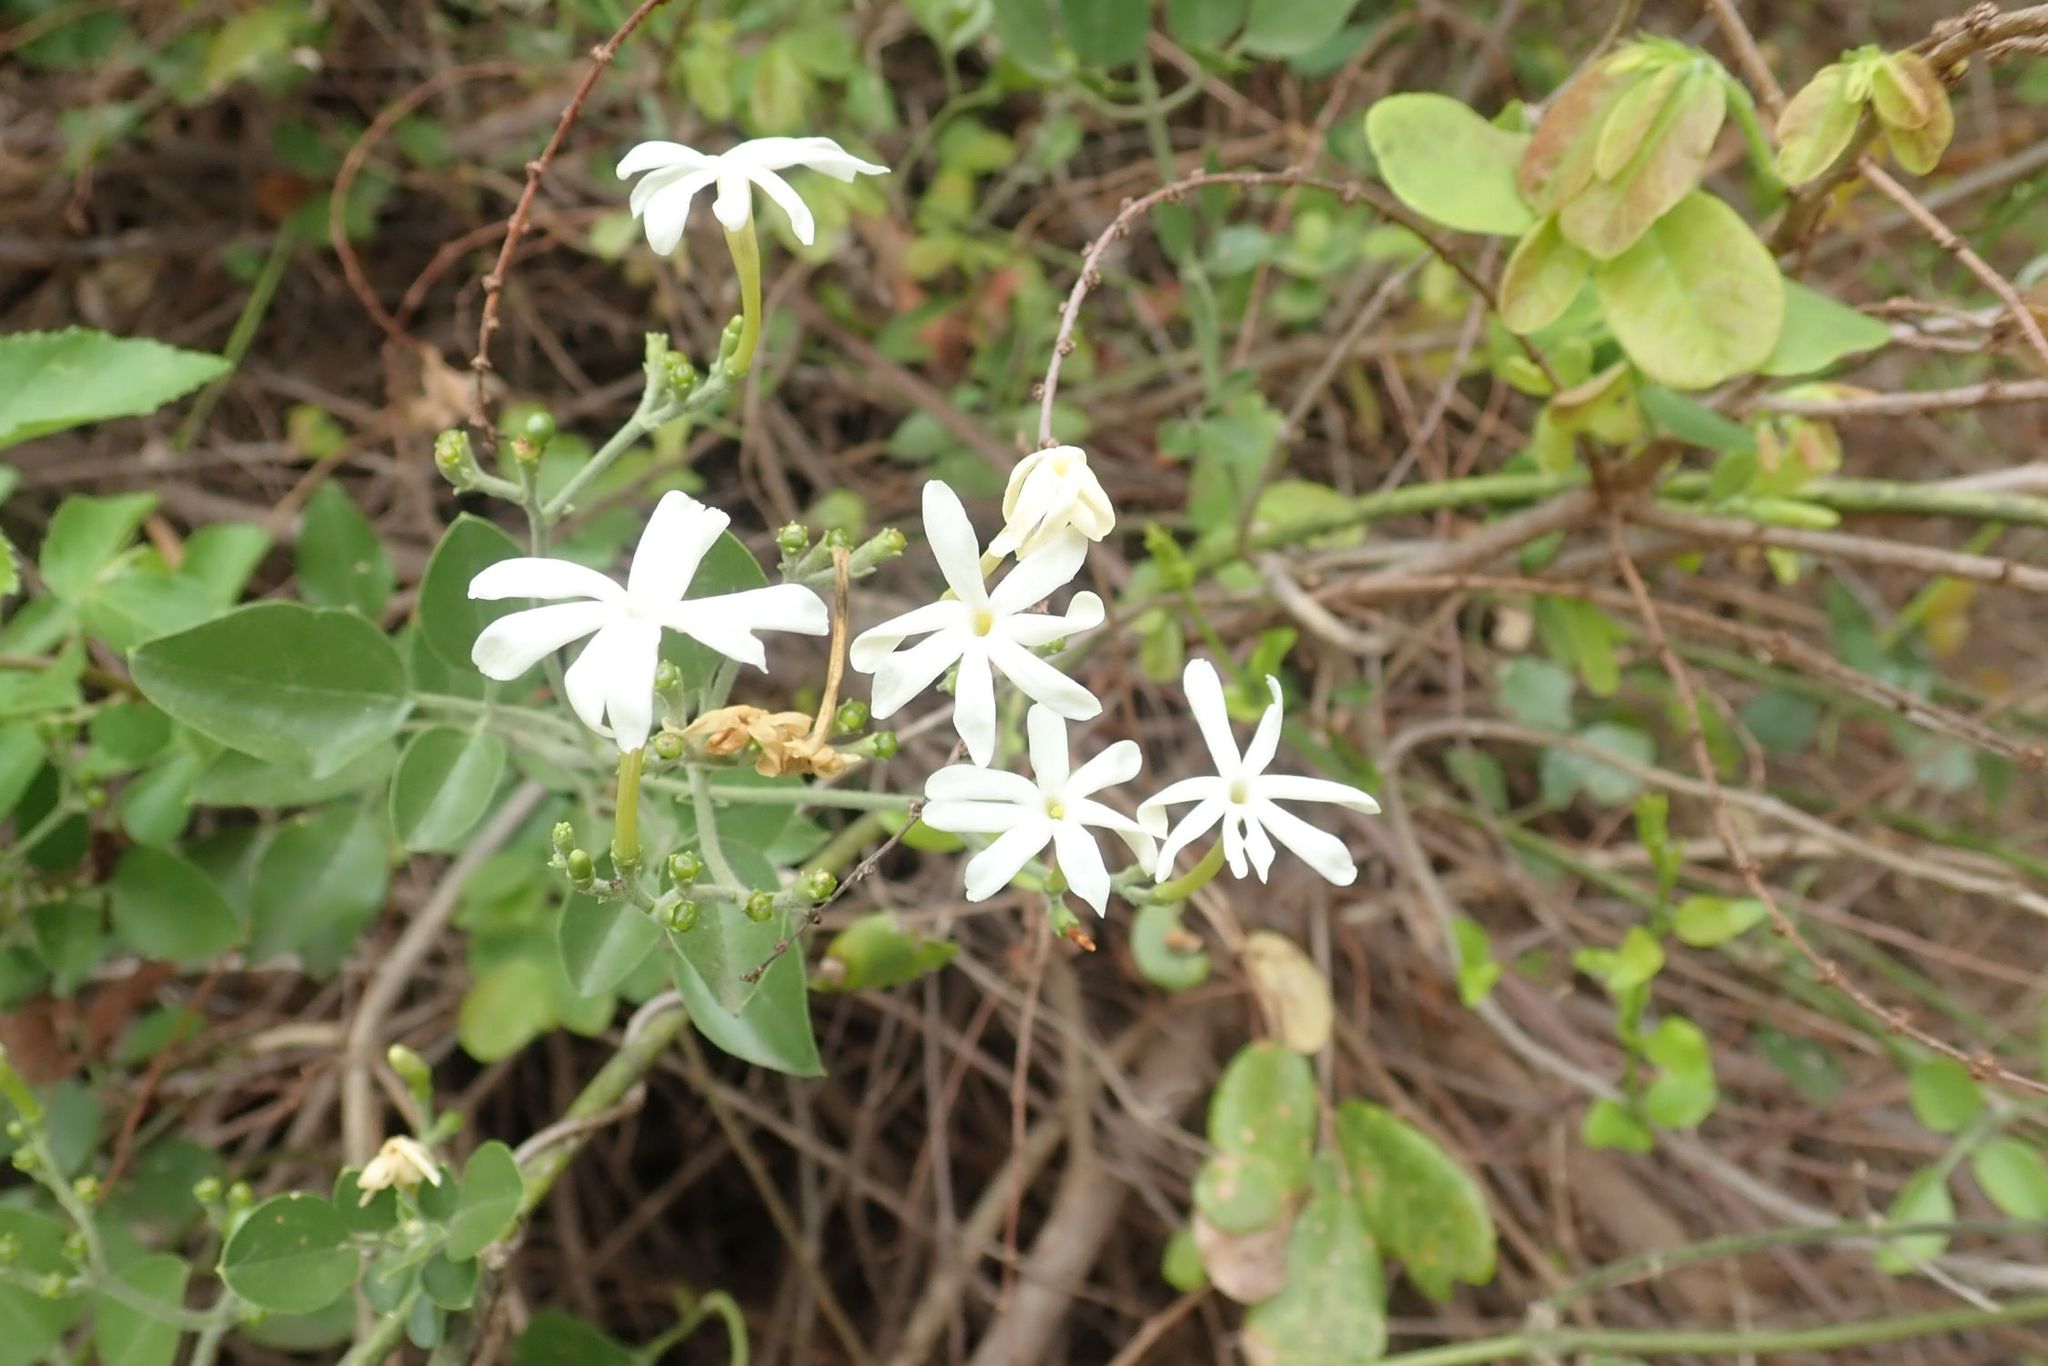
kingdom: Plantae
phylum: Tracheophyta
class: Magnoliopsida
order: Lamiales
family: Oleaceae
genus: Jasminum
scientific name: Jasminum fluminense
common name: Brazilian jasmine
